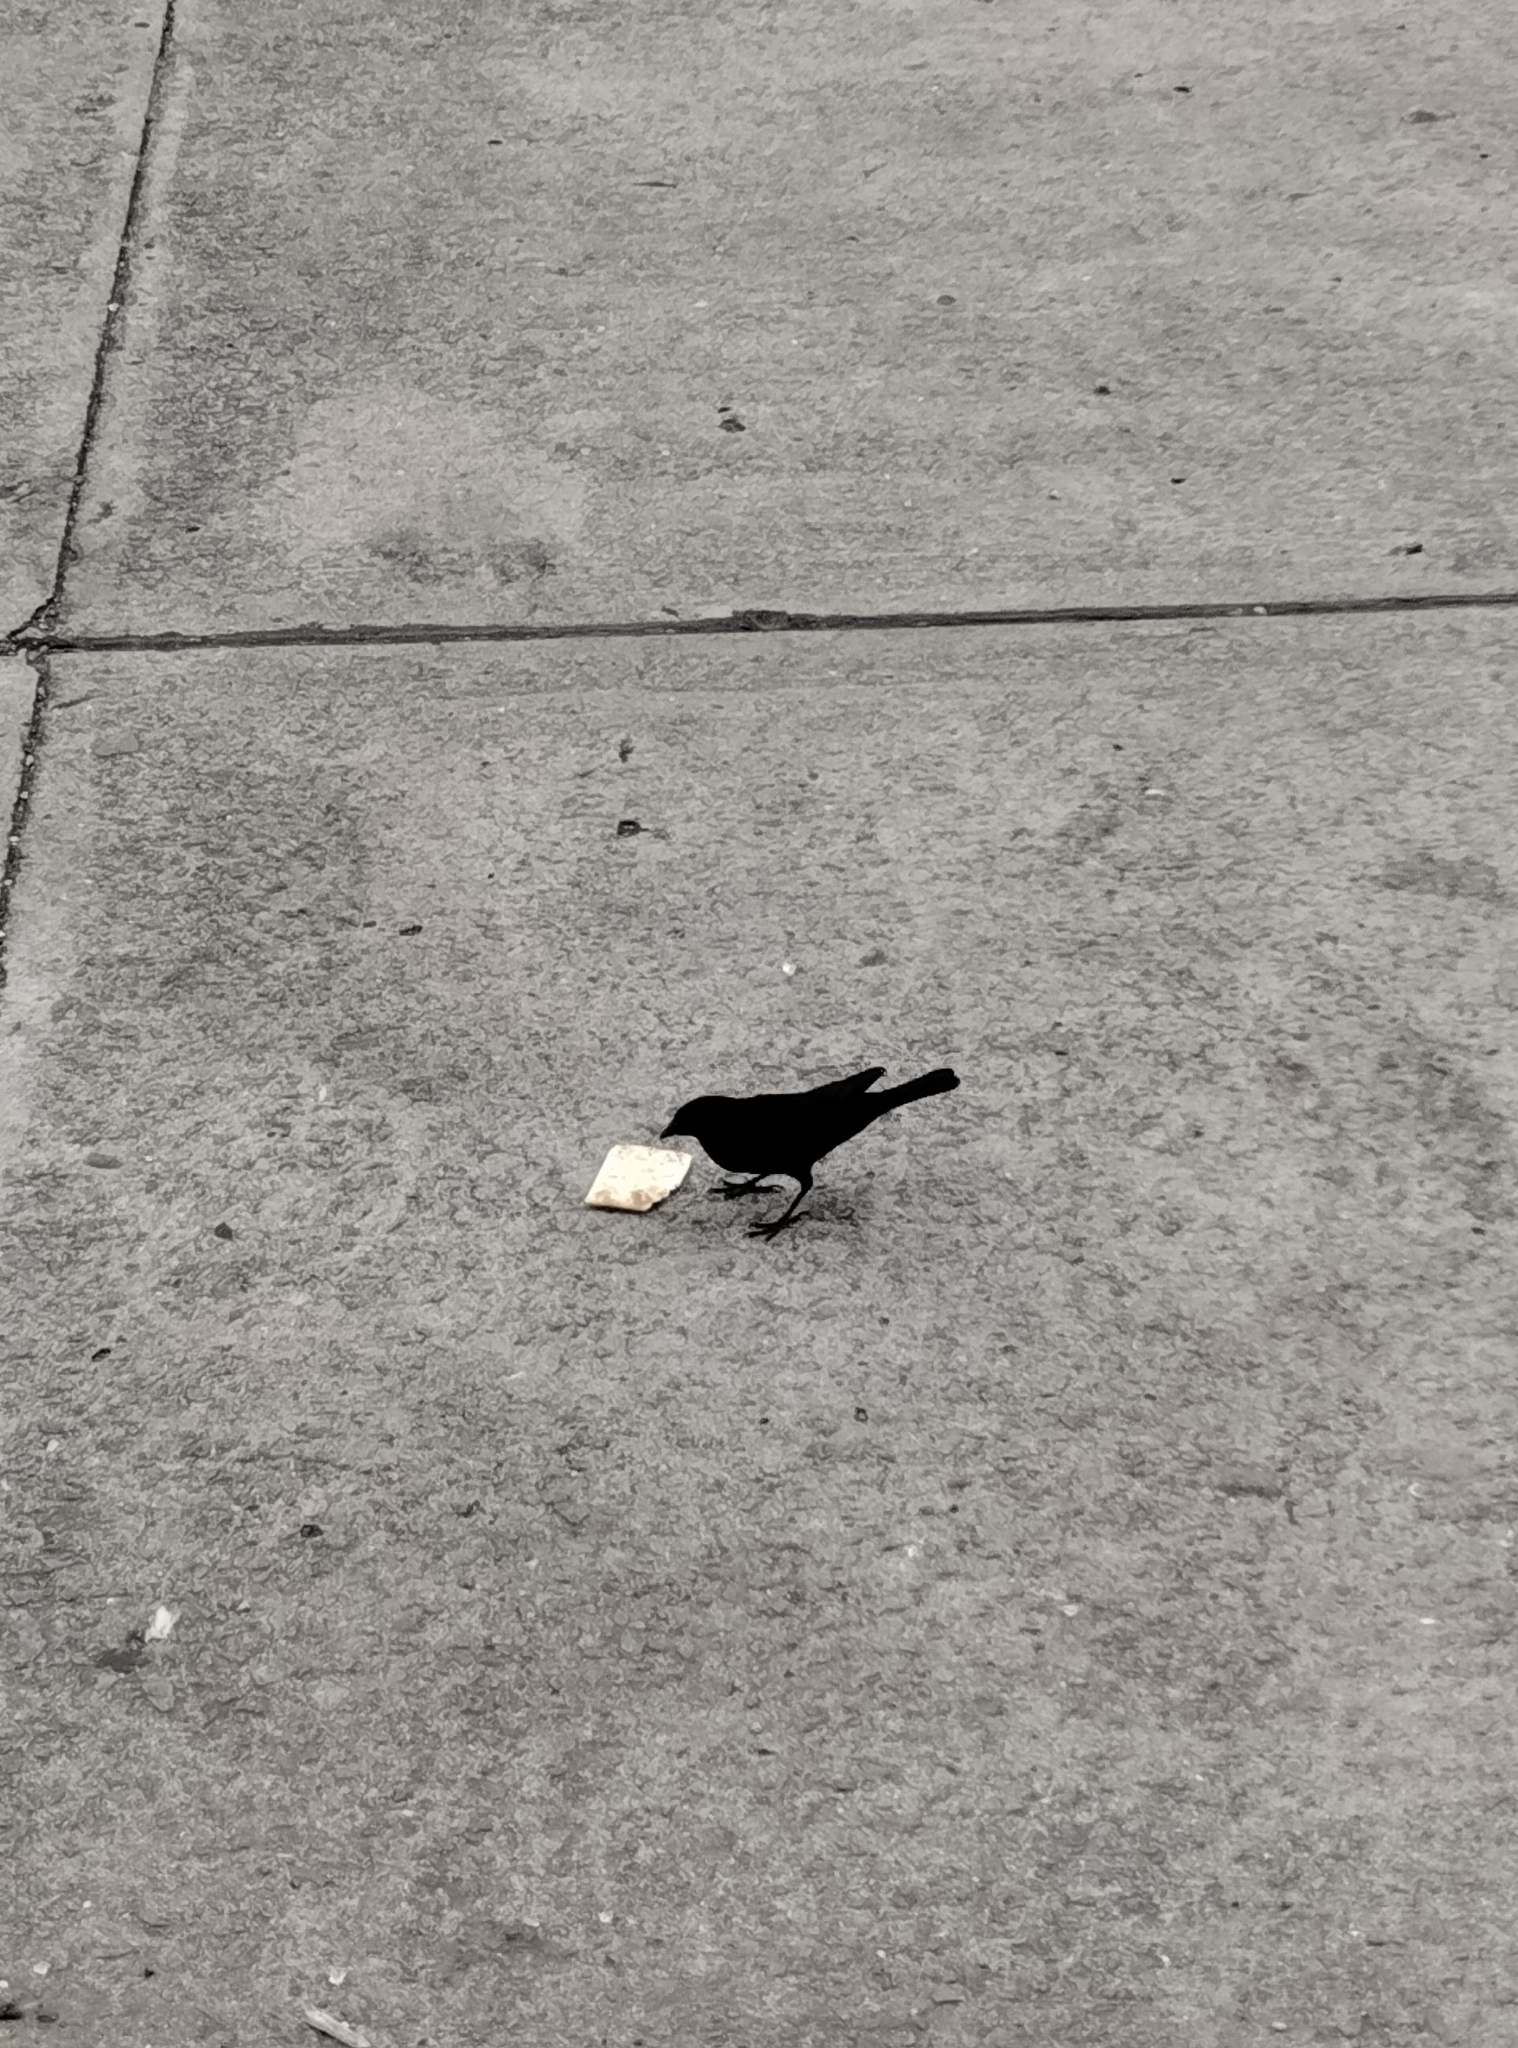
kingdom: Animalia
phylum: Chordata
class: Aves
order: Passeriformes
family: Icteridae
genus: Molothrus
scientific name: Molothrus bonariensis
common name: Shiny cowbird
